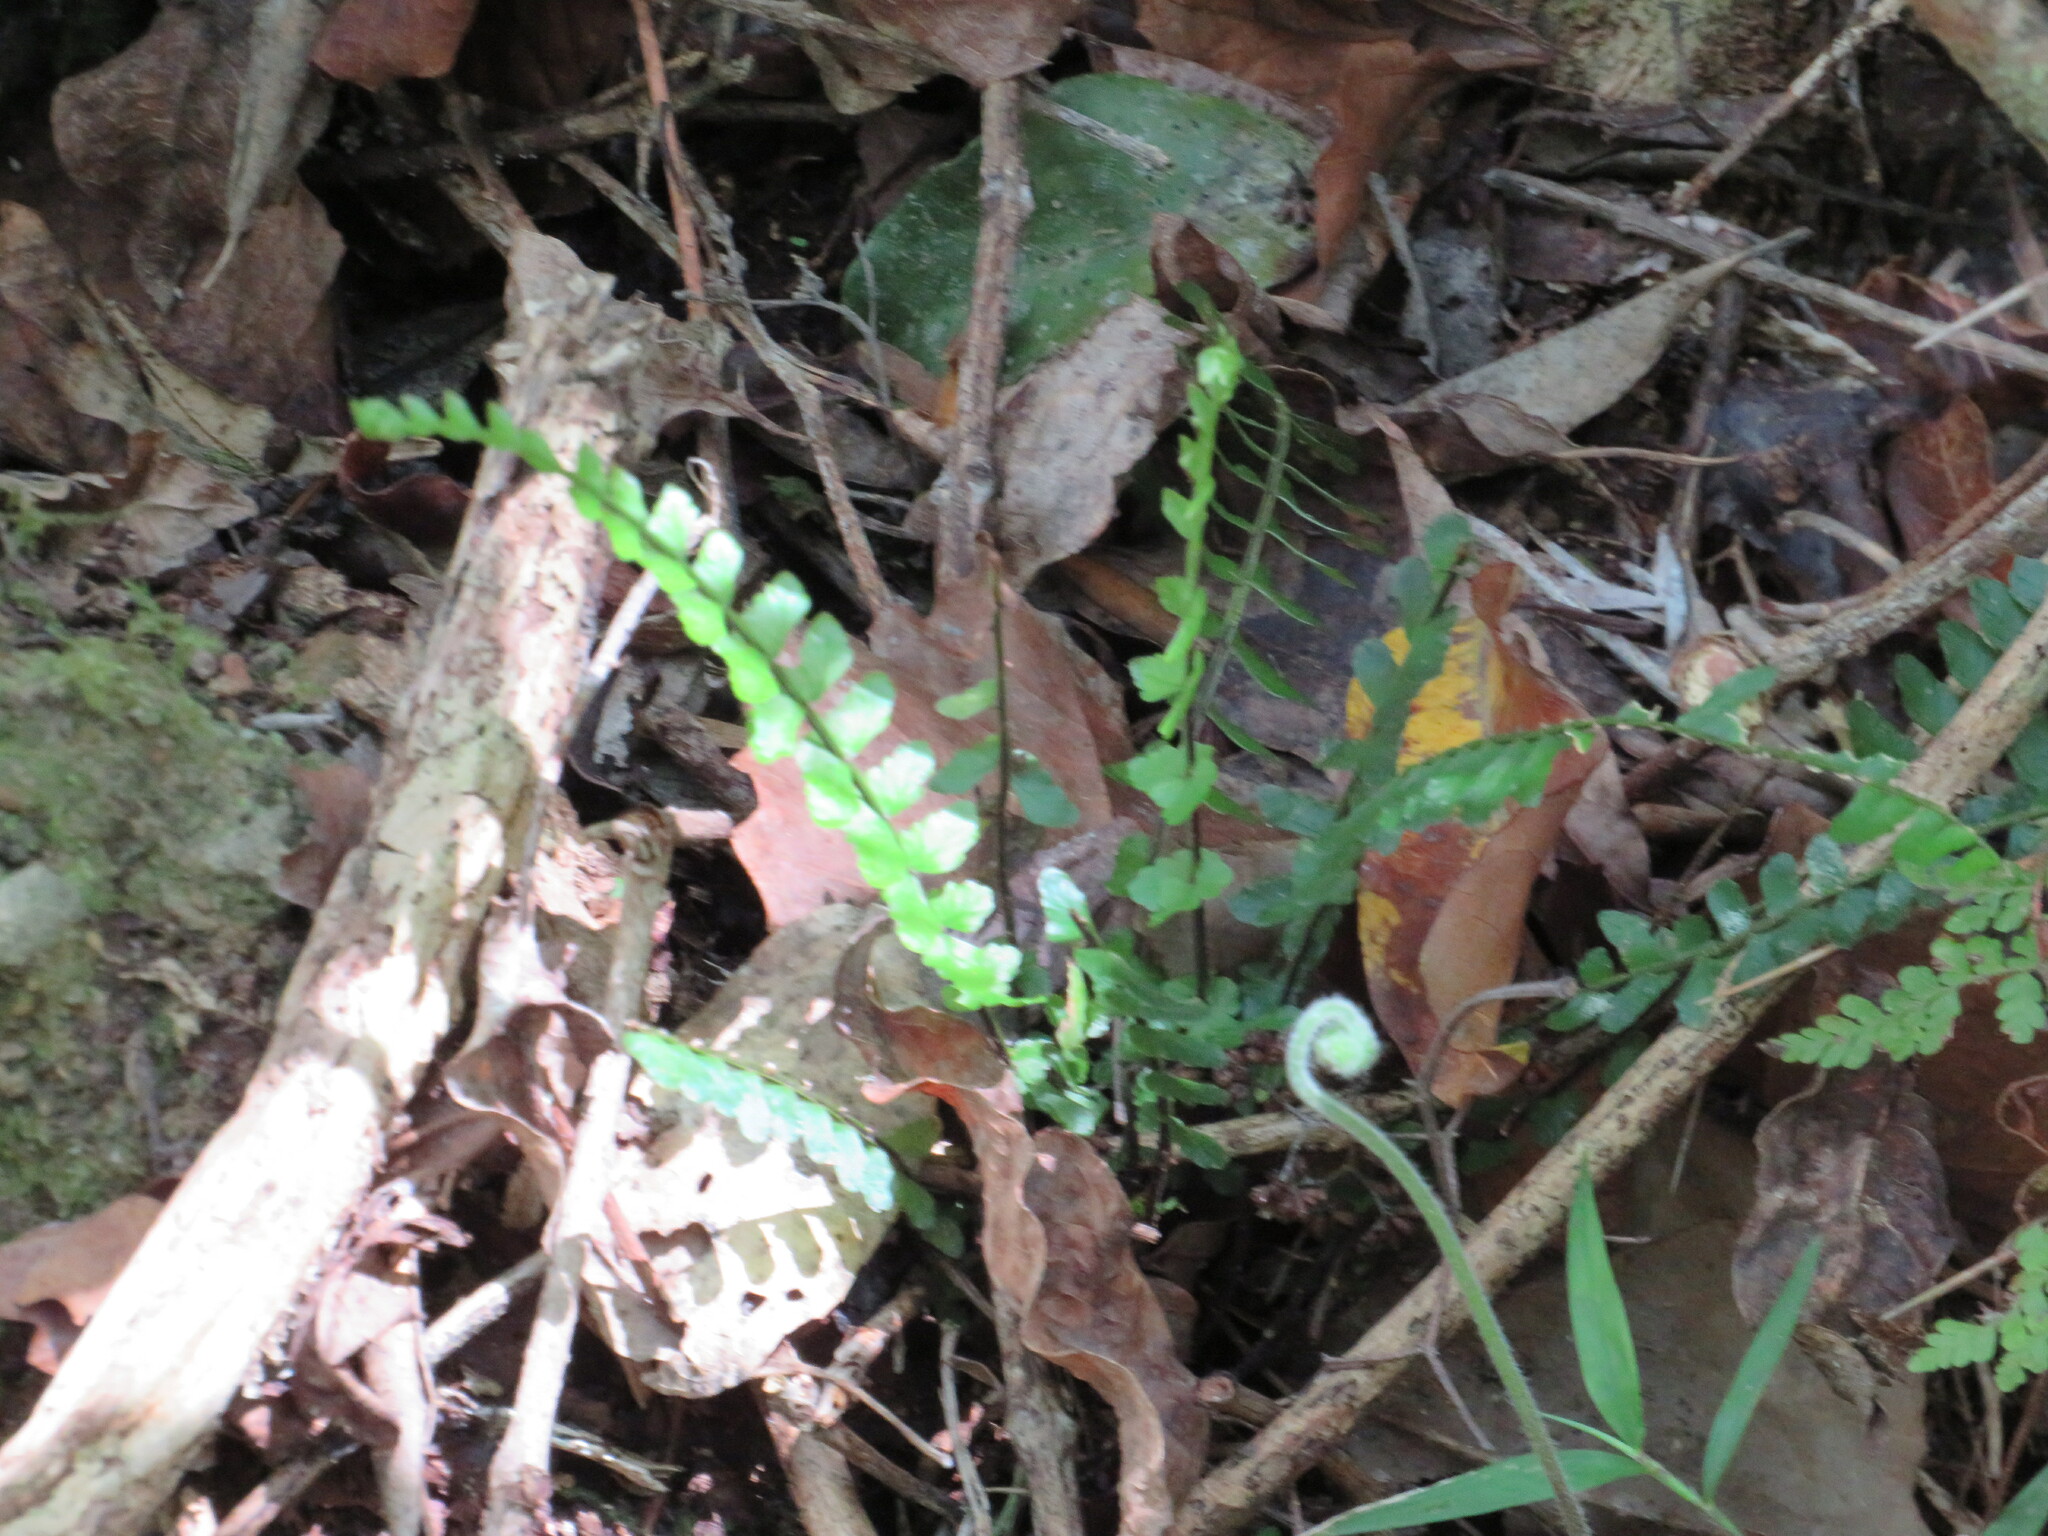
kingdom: Plantae
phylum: Tracheophyta
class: Polypodiopsida
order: Polypodiales
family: Aspleniaceae
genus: Asplenium
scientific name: Asplenium lunulatum
